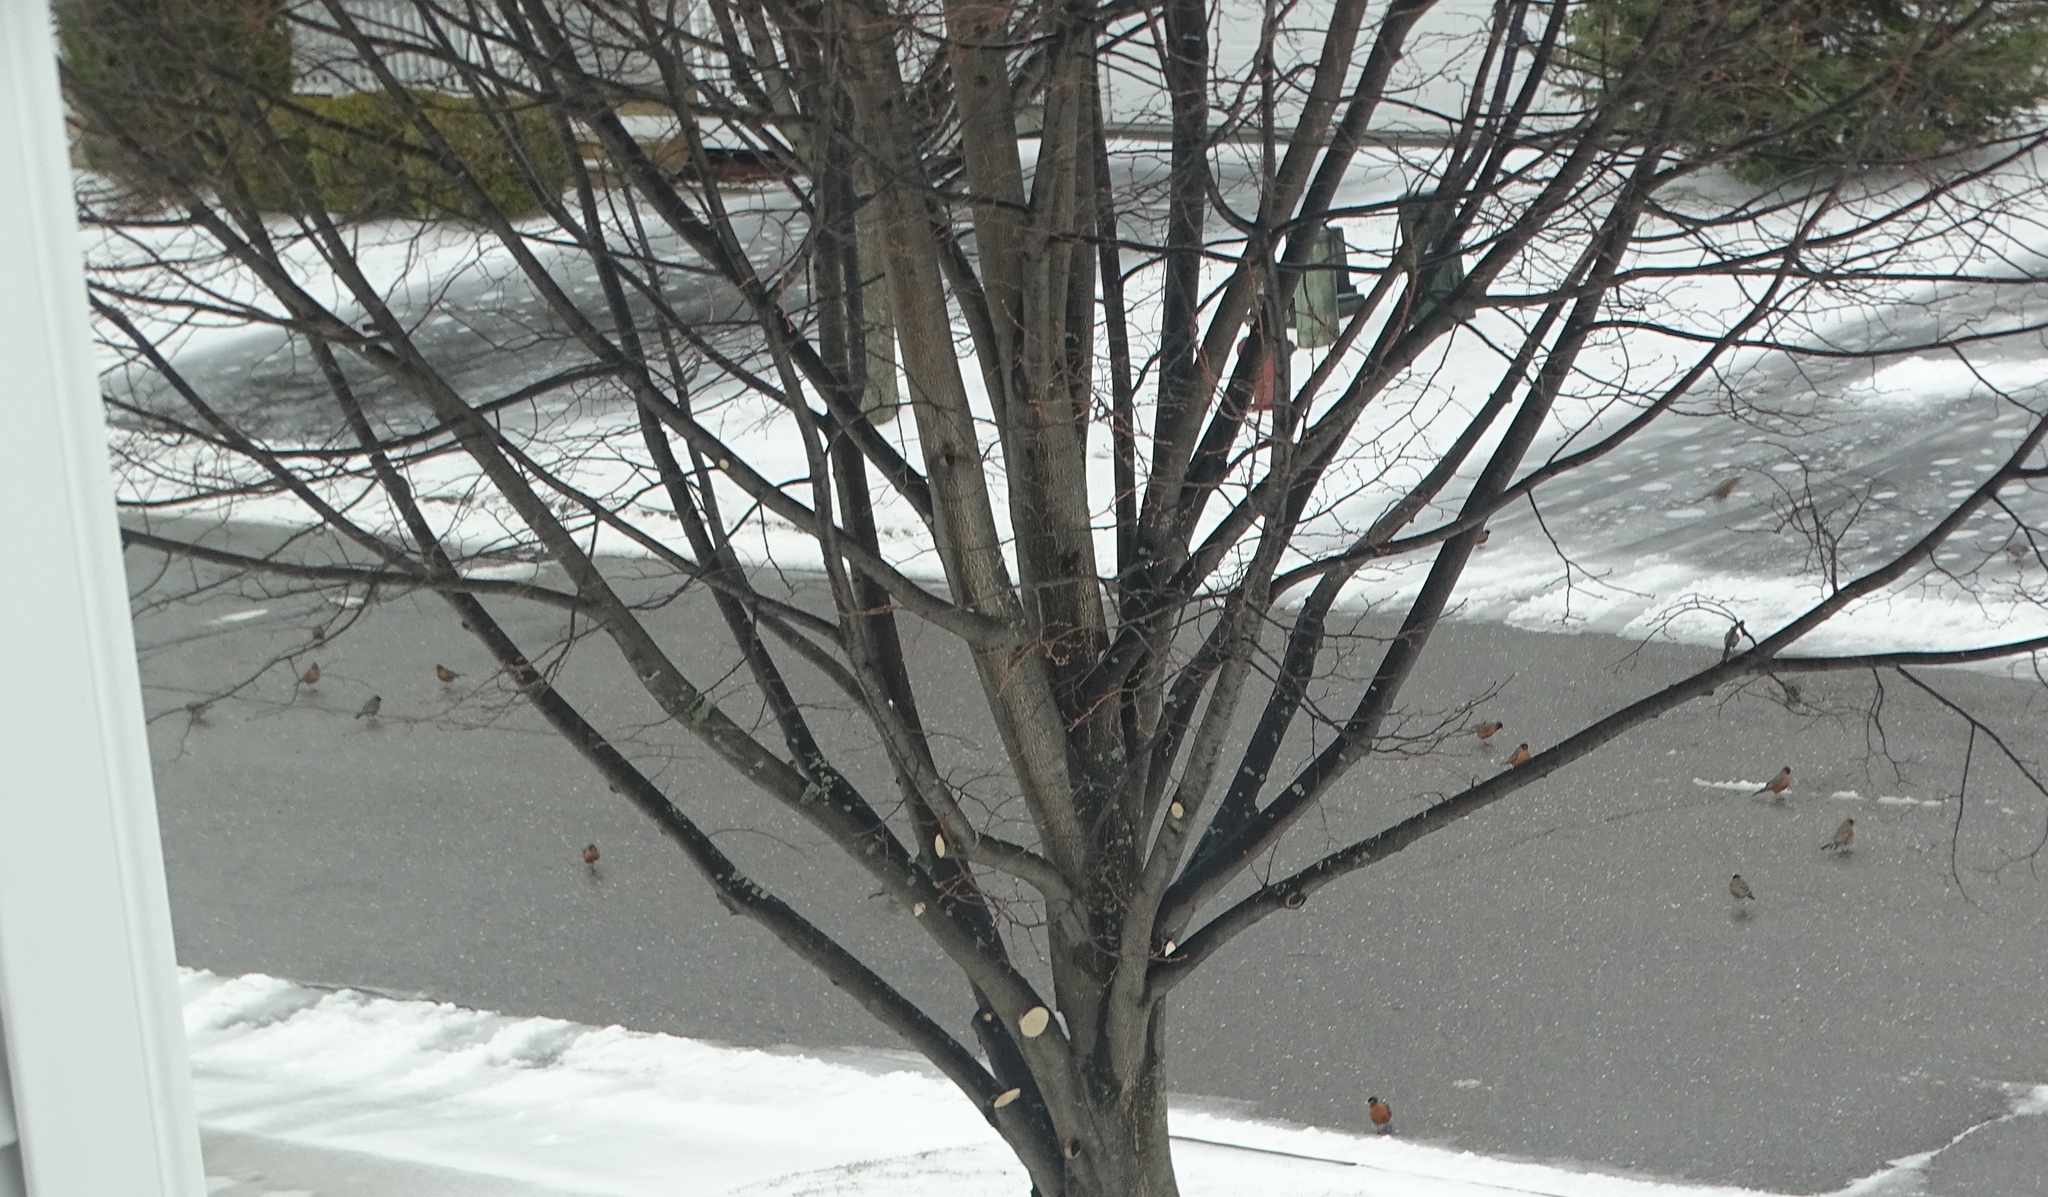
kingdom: Animalia
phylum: Chordata
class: Aves
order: Passeriformes
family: Turdidae
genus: Turdus
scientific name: Turdus migratorius
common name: American robin
